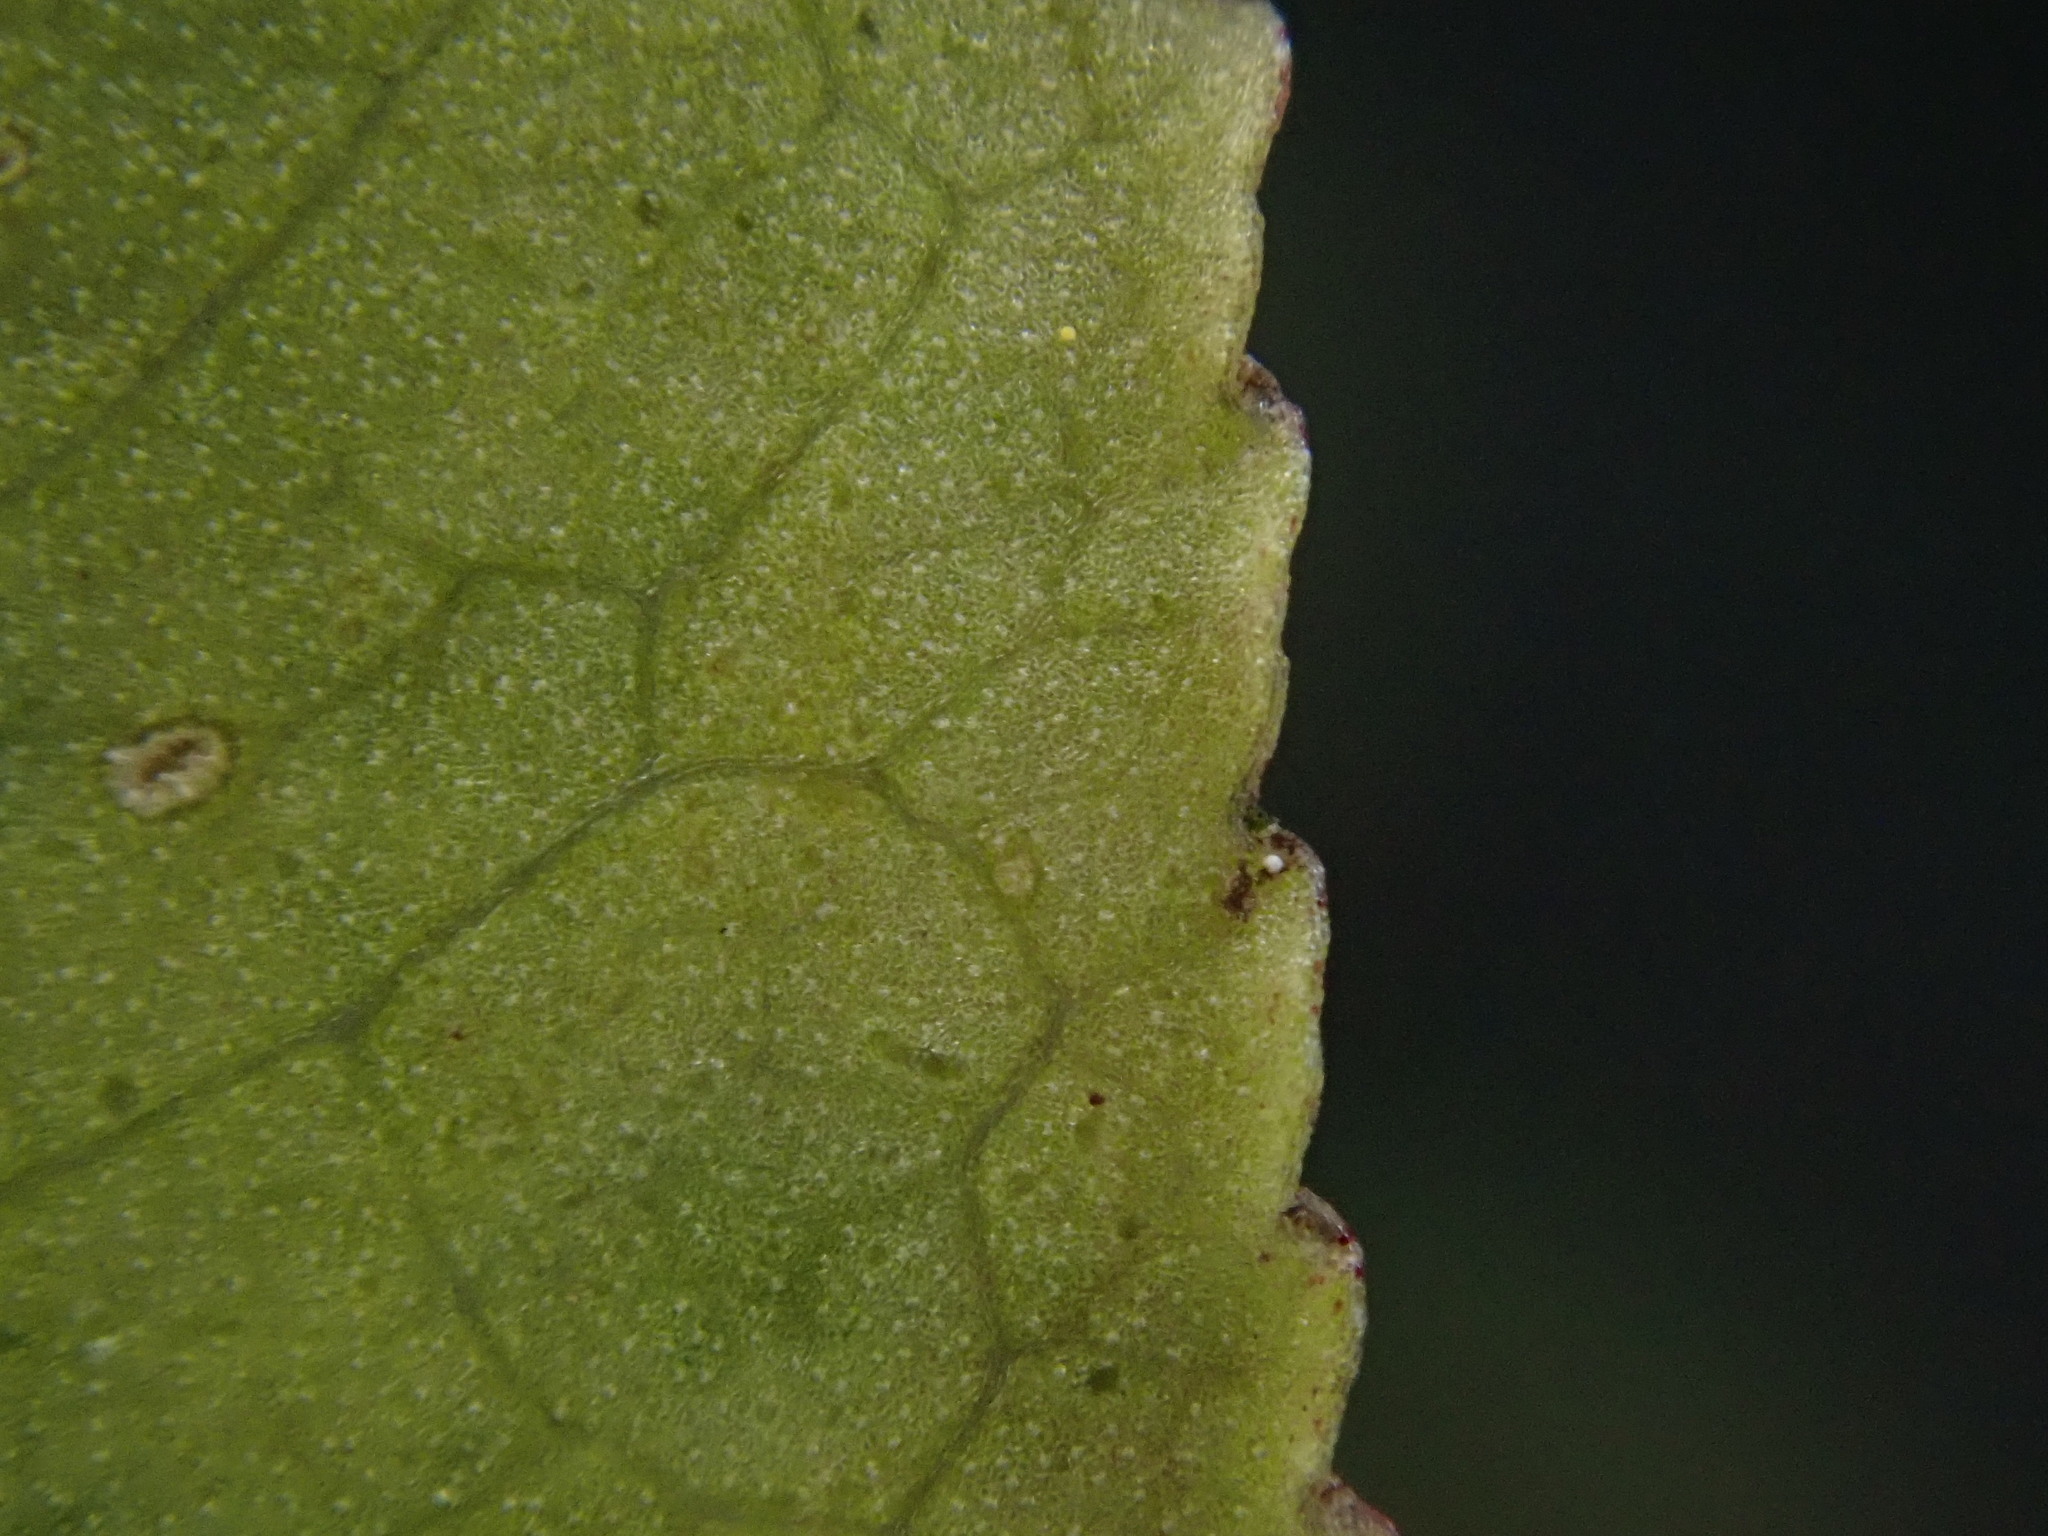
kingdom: Plantae
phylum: Tracheophyta
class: Magnoliopsida
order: Celastrales
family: Celastraceae
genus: Euonymus
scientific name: Euonymus europaeus
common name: Spindle
